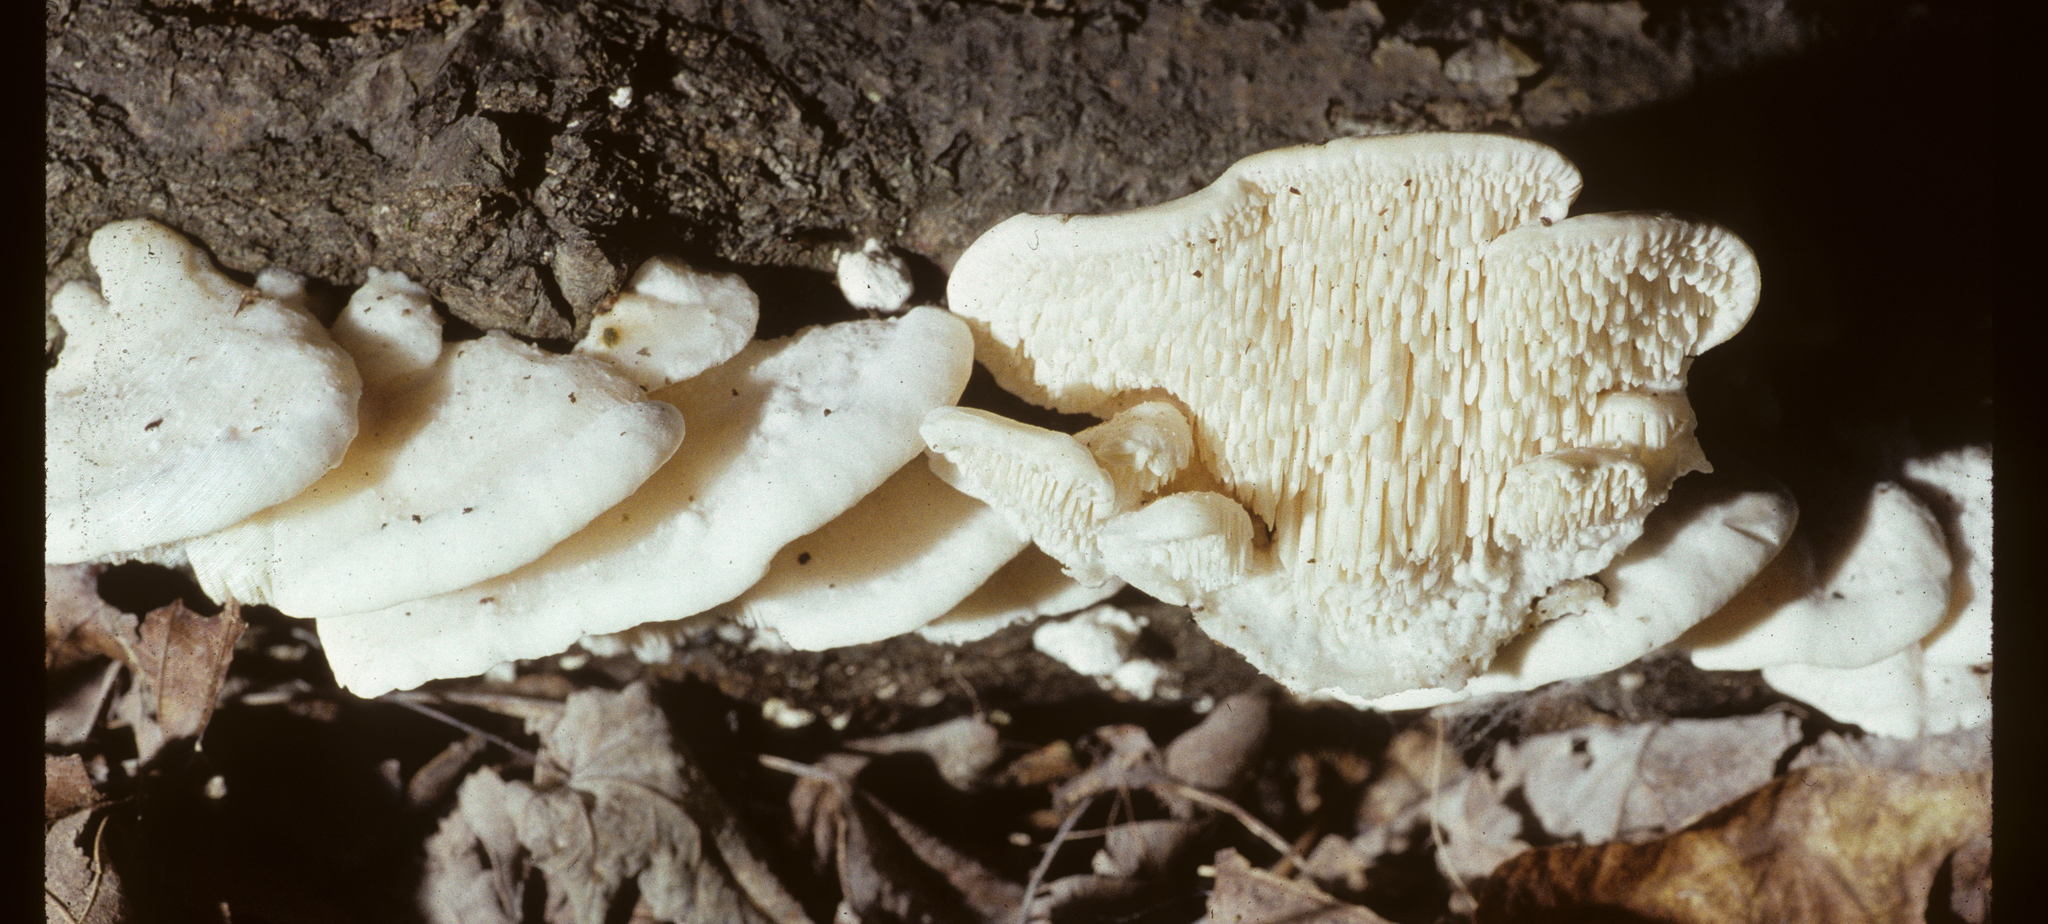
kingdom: Fungi
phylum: Basidiomycota
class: Agaricomycetes
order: Polyporales
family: Irpicaceae
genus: Irpex
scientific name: Irpex lacteus
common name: Milk-white toothed polypore
